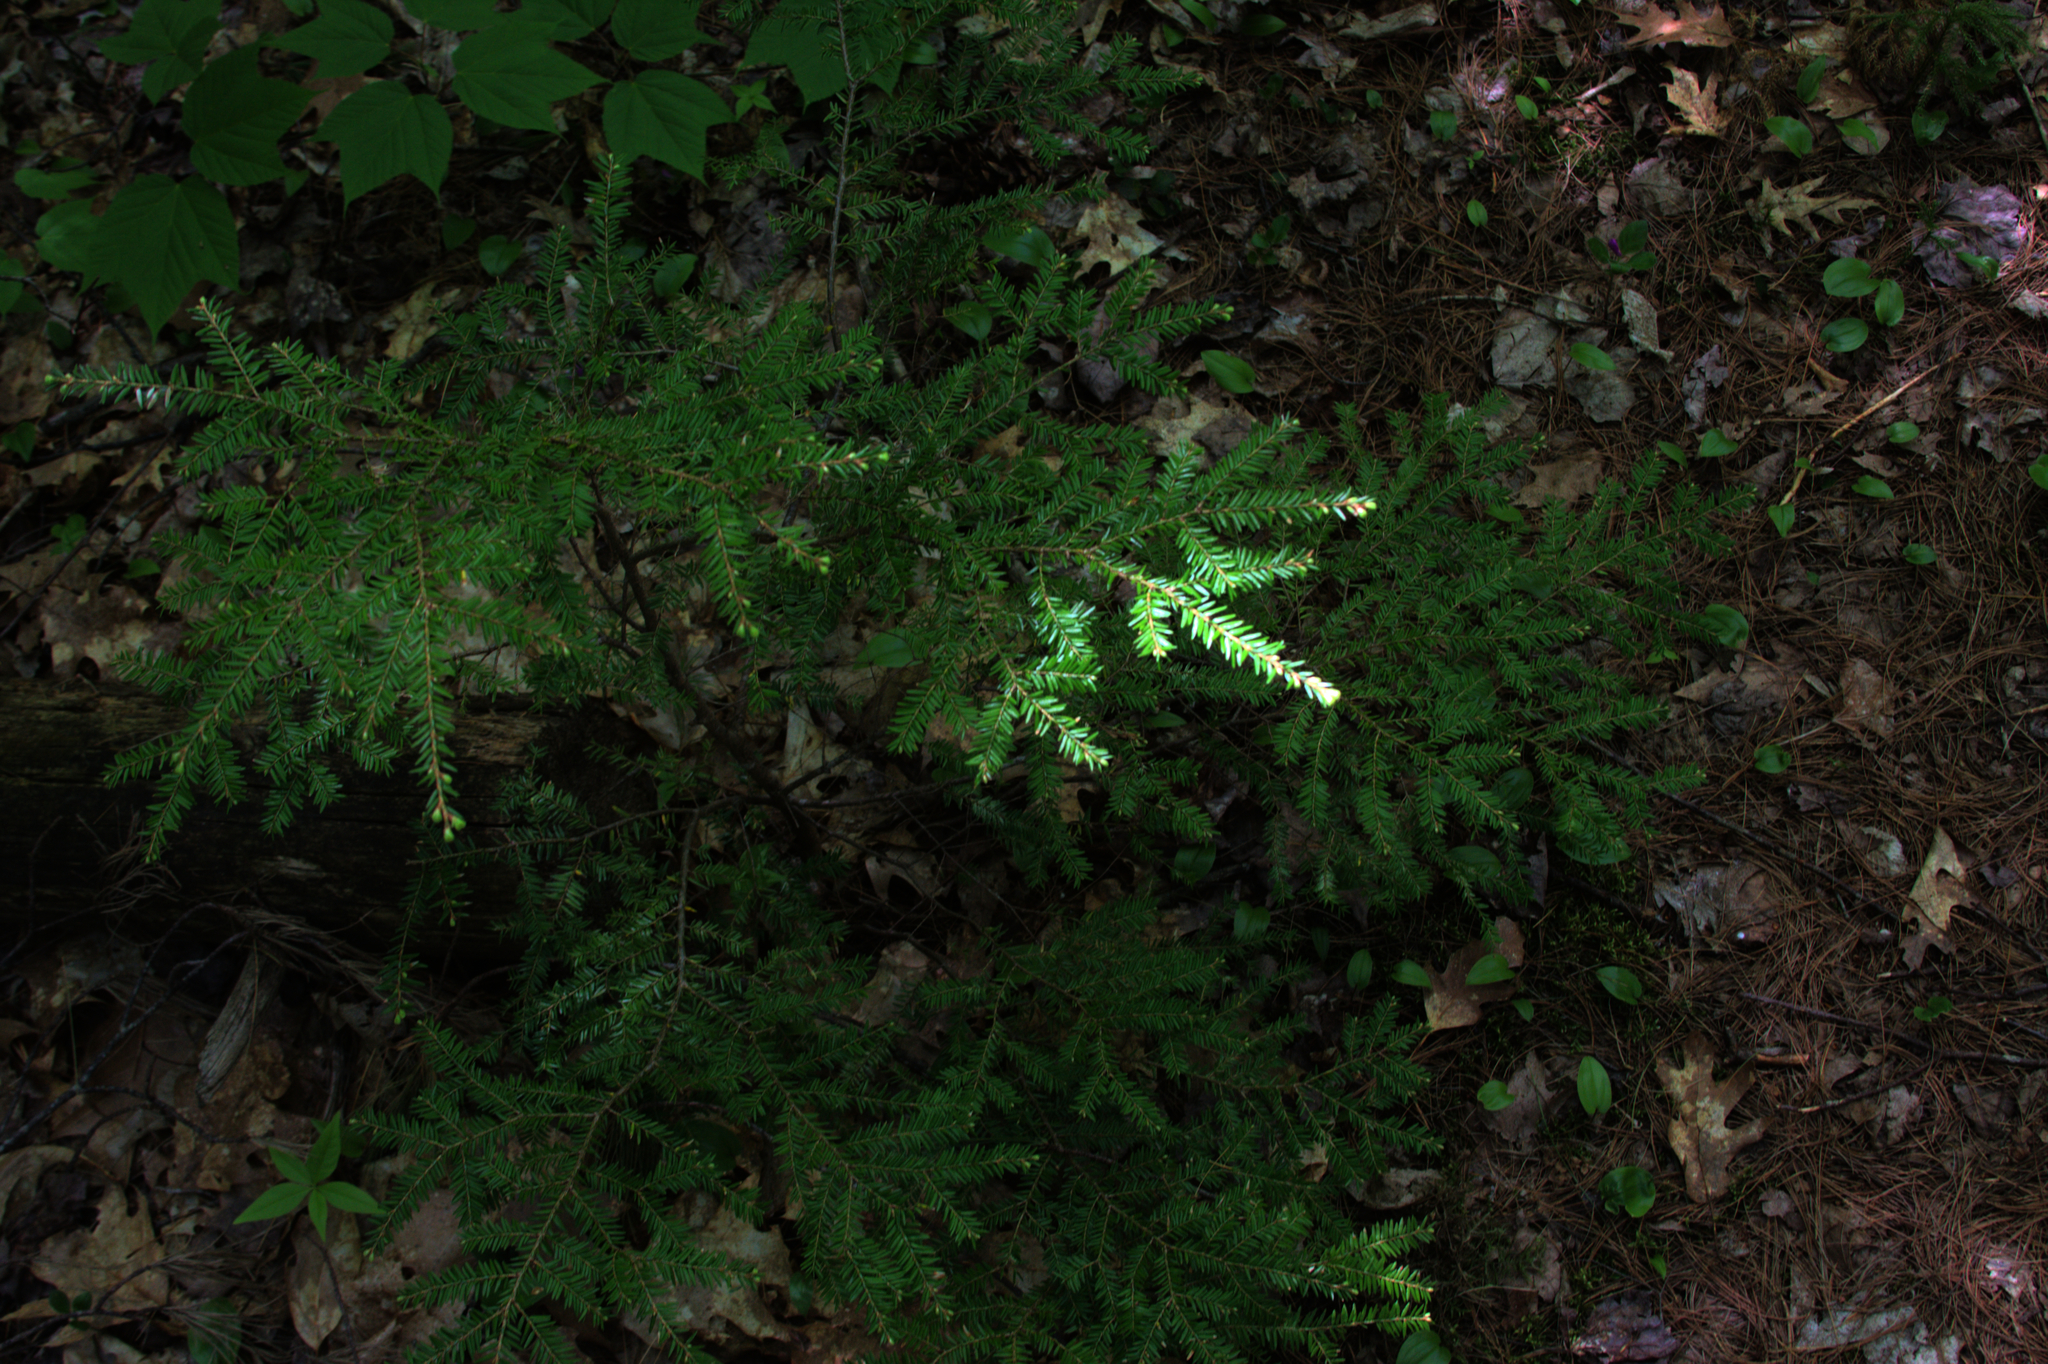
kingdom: Plantae
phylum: Tracheophyta
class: Pinopsida
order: Pinales
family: Pinaceae
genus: Tsuga
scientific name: Tsuga canadensis
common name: Eastern hemlock
